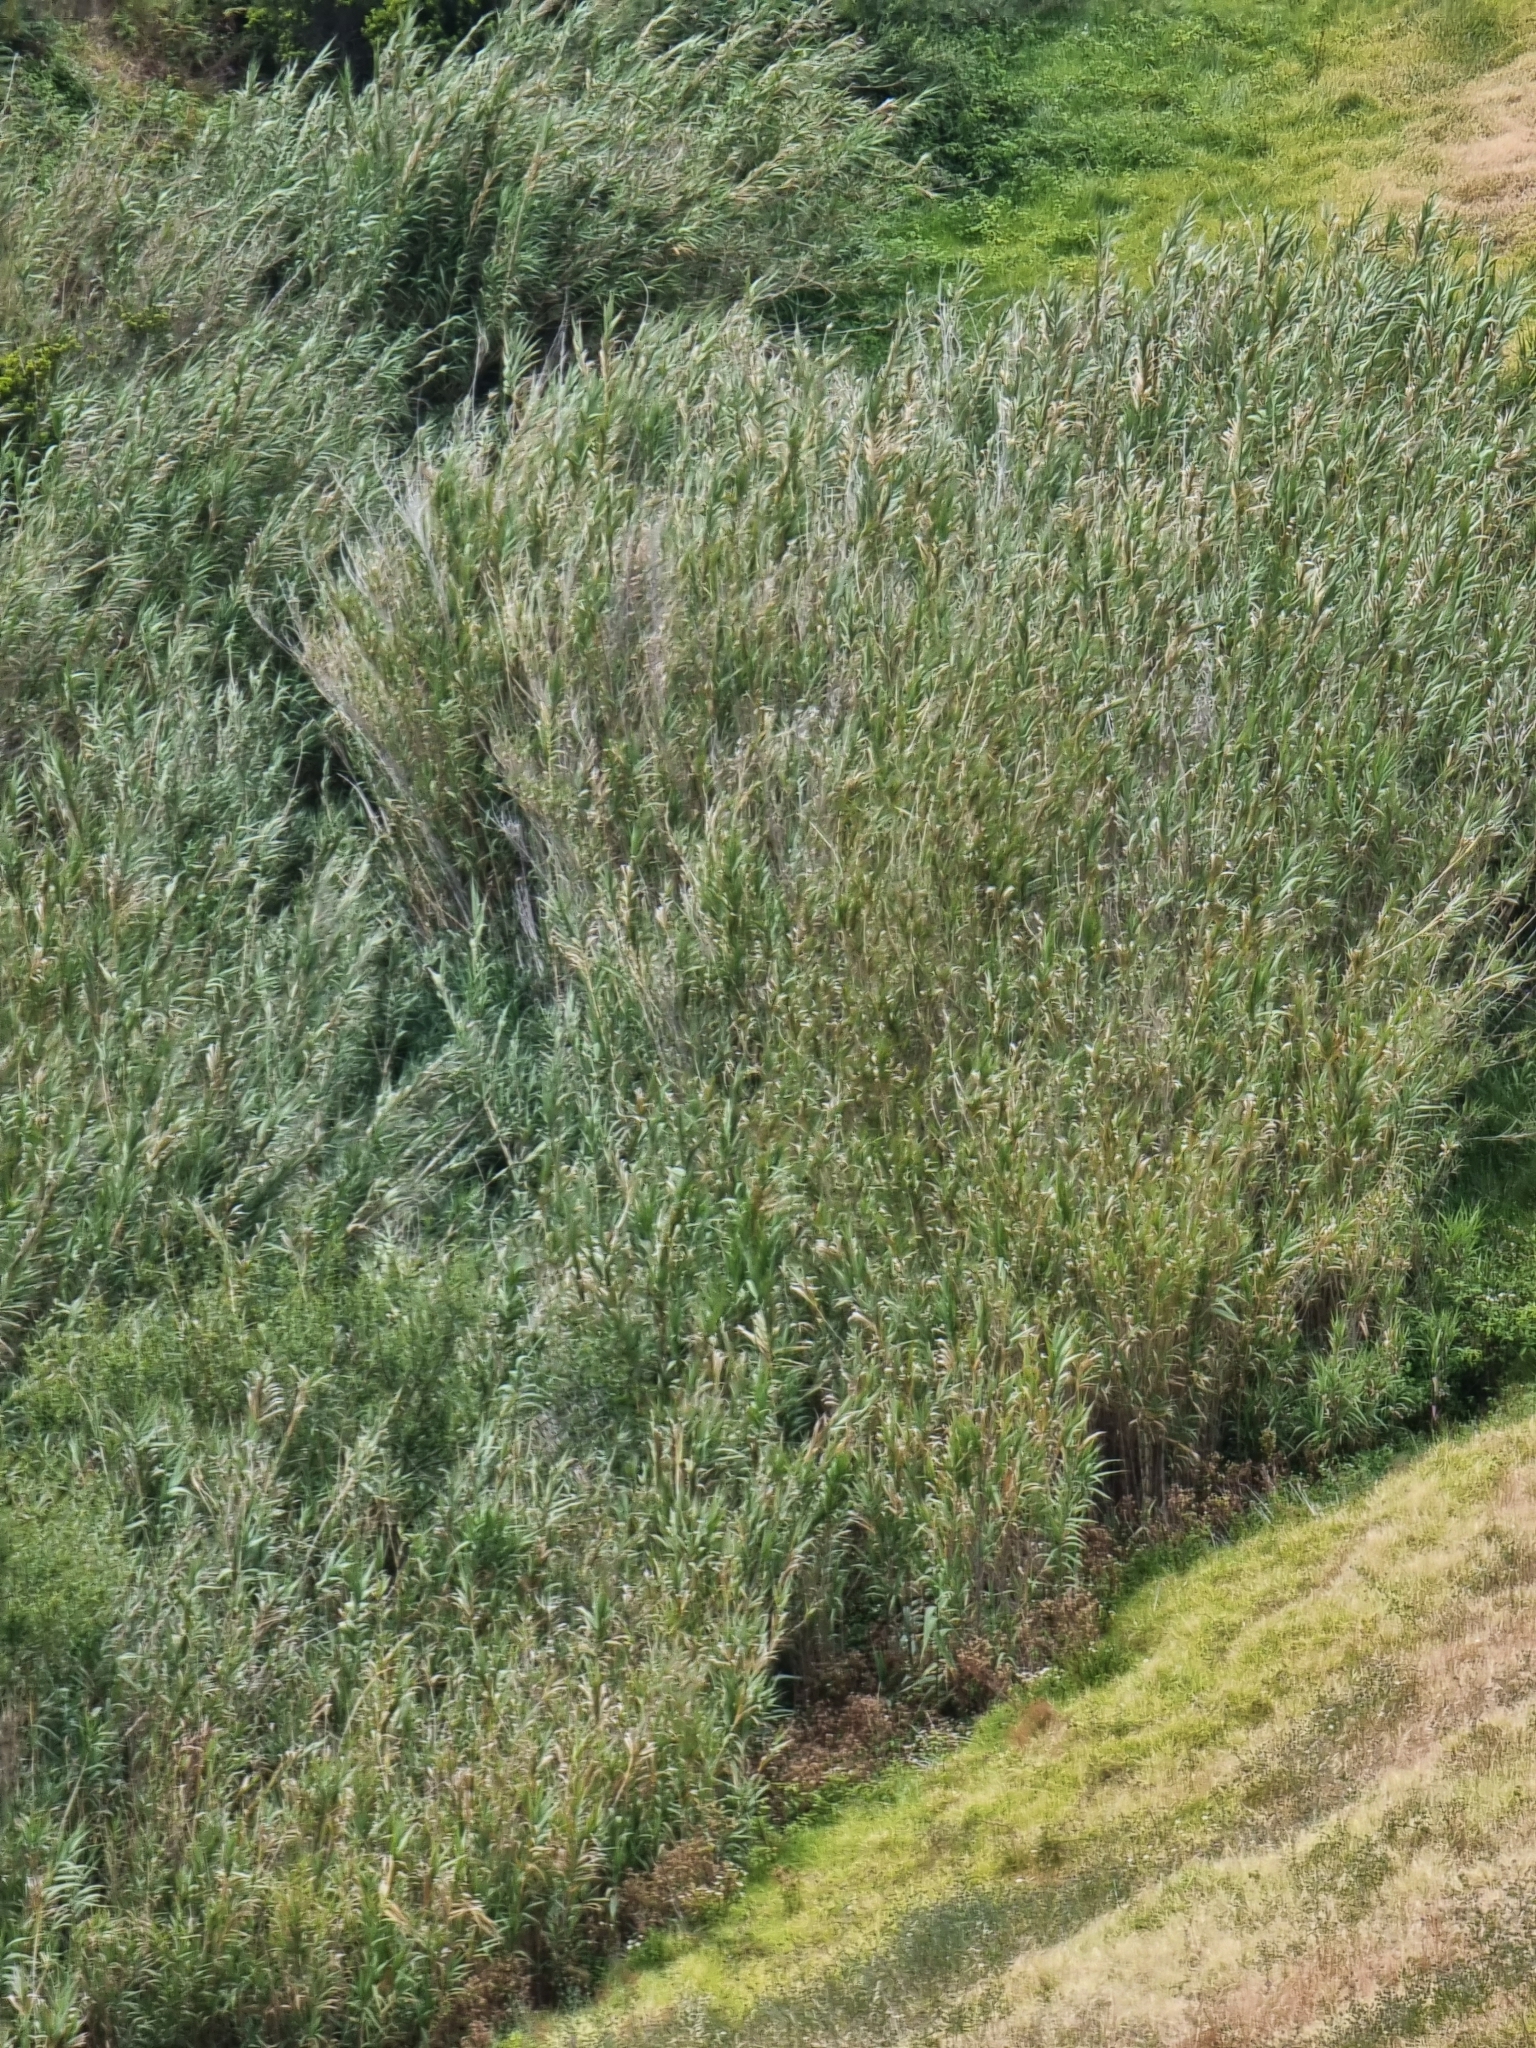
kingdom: Plantae
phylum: Tracheophyta
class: Liliopsida
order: Poales
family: Poaceae
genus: Arundo
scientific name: Arundo donax
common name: Giant reed
